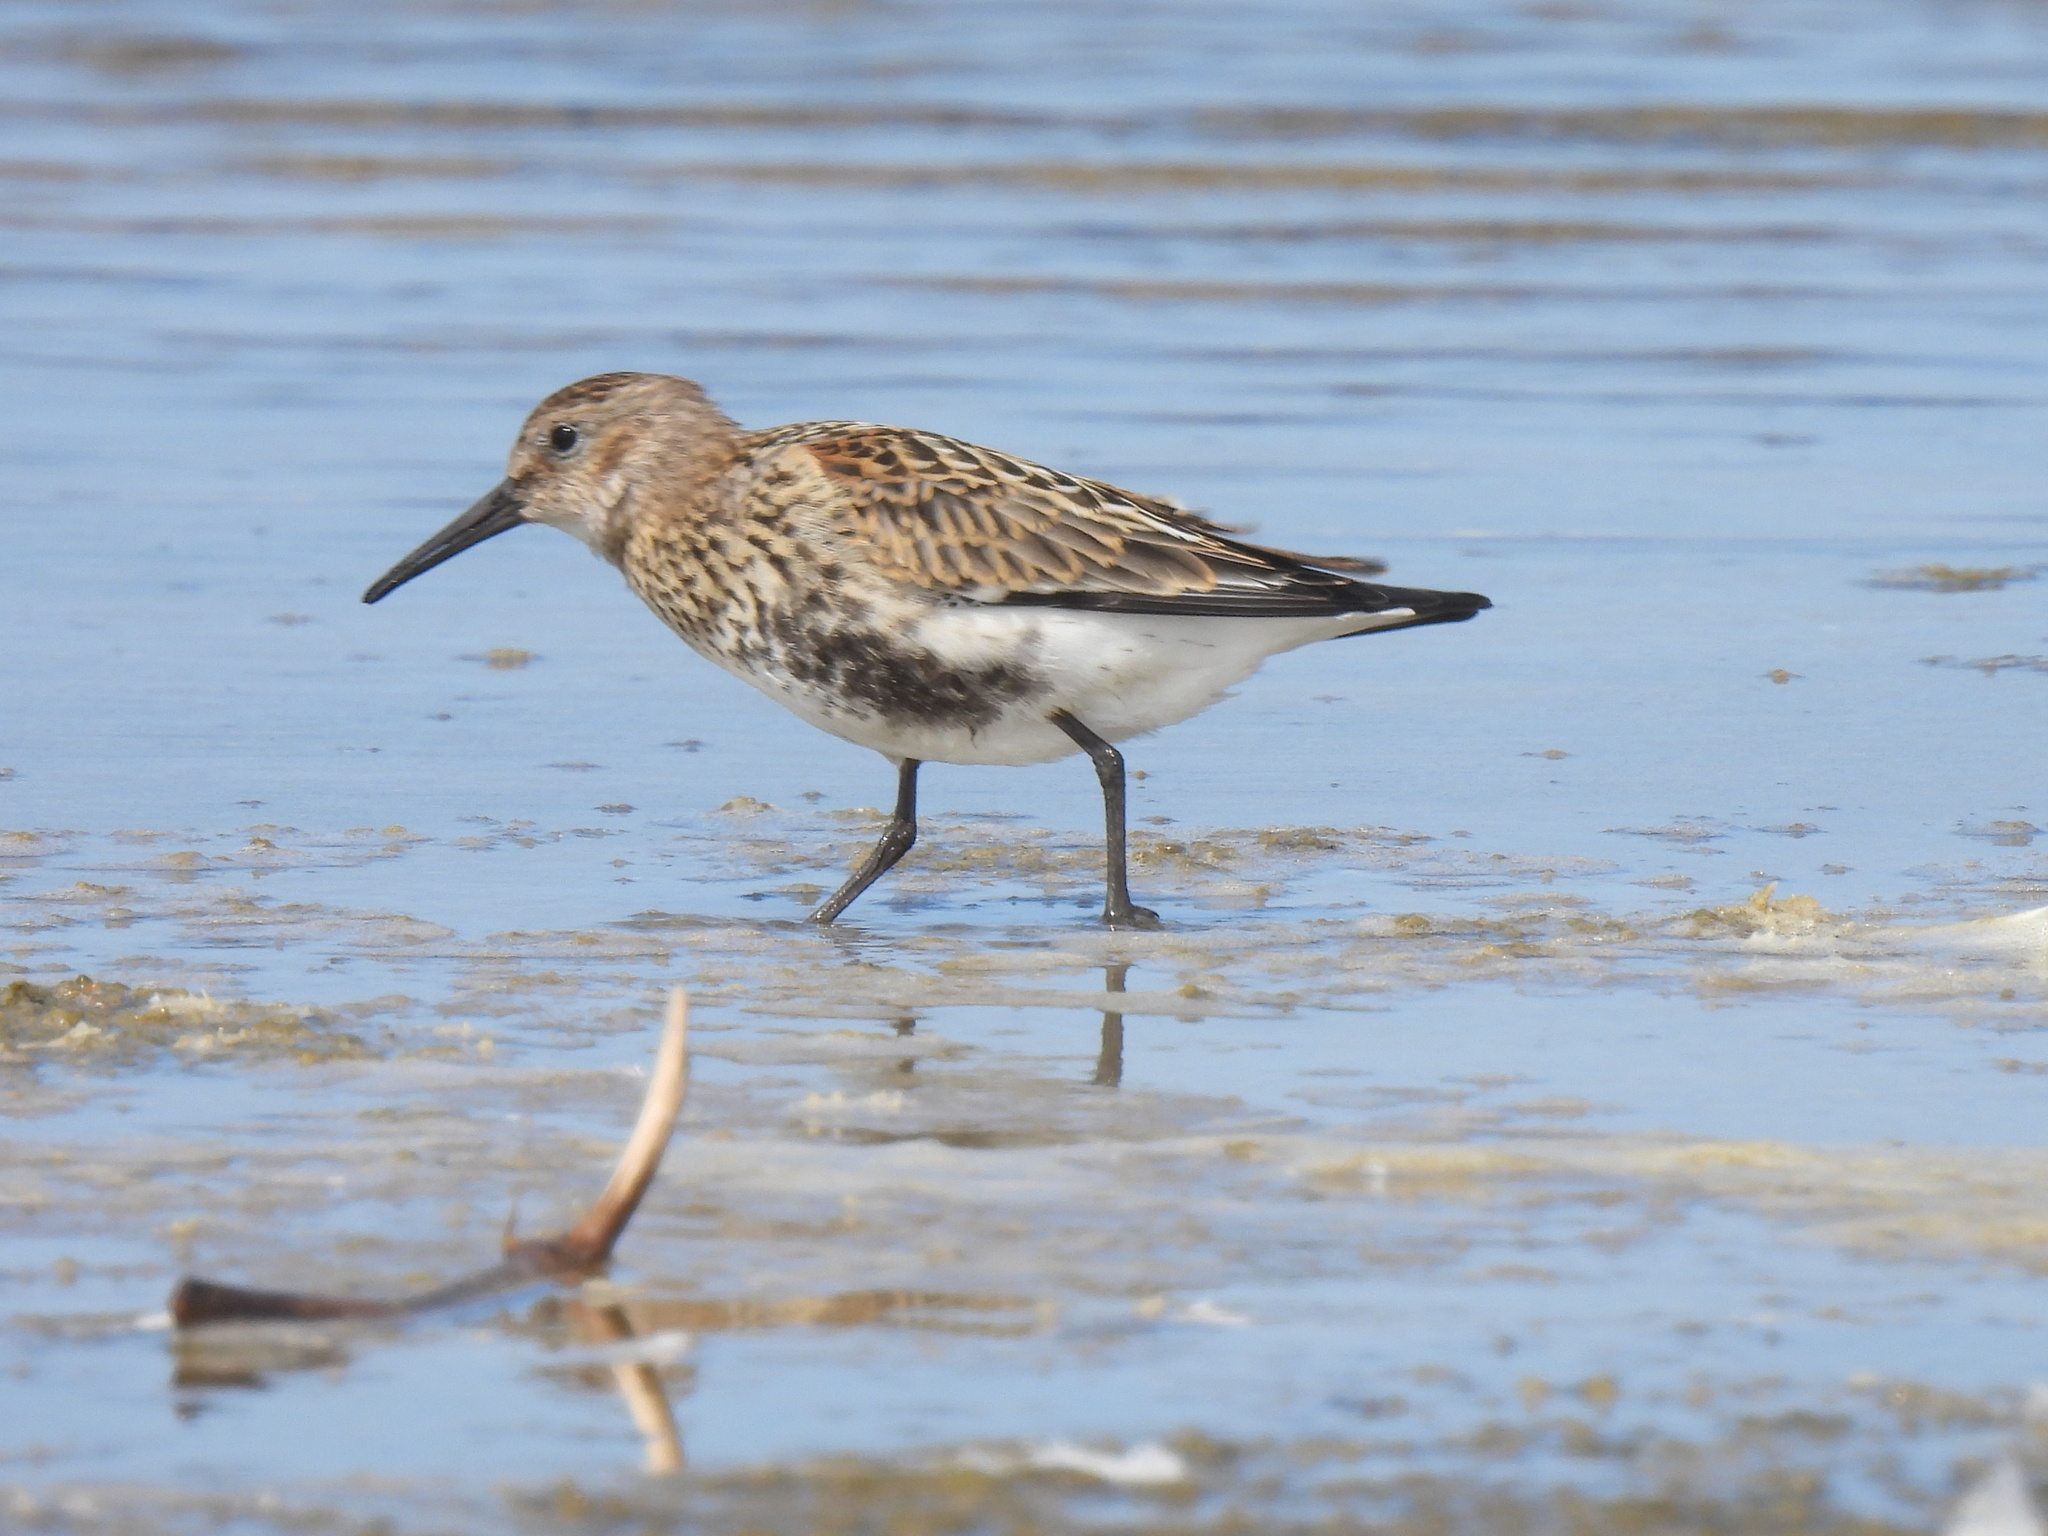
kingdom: Animalia
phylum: Chordata
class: Aves
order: Charadriiformes
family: Scolopacidae
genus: Calidris
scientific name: Calidris alpina
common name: Dunlin
